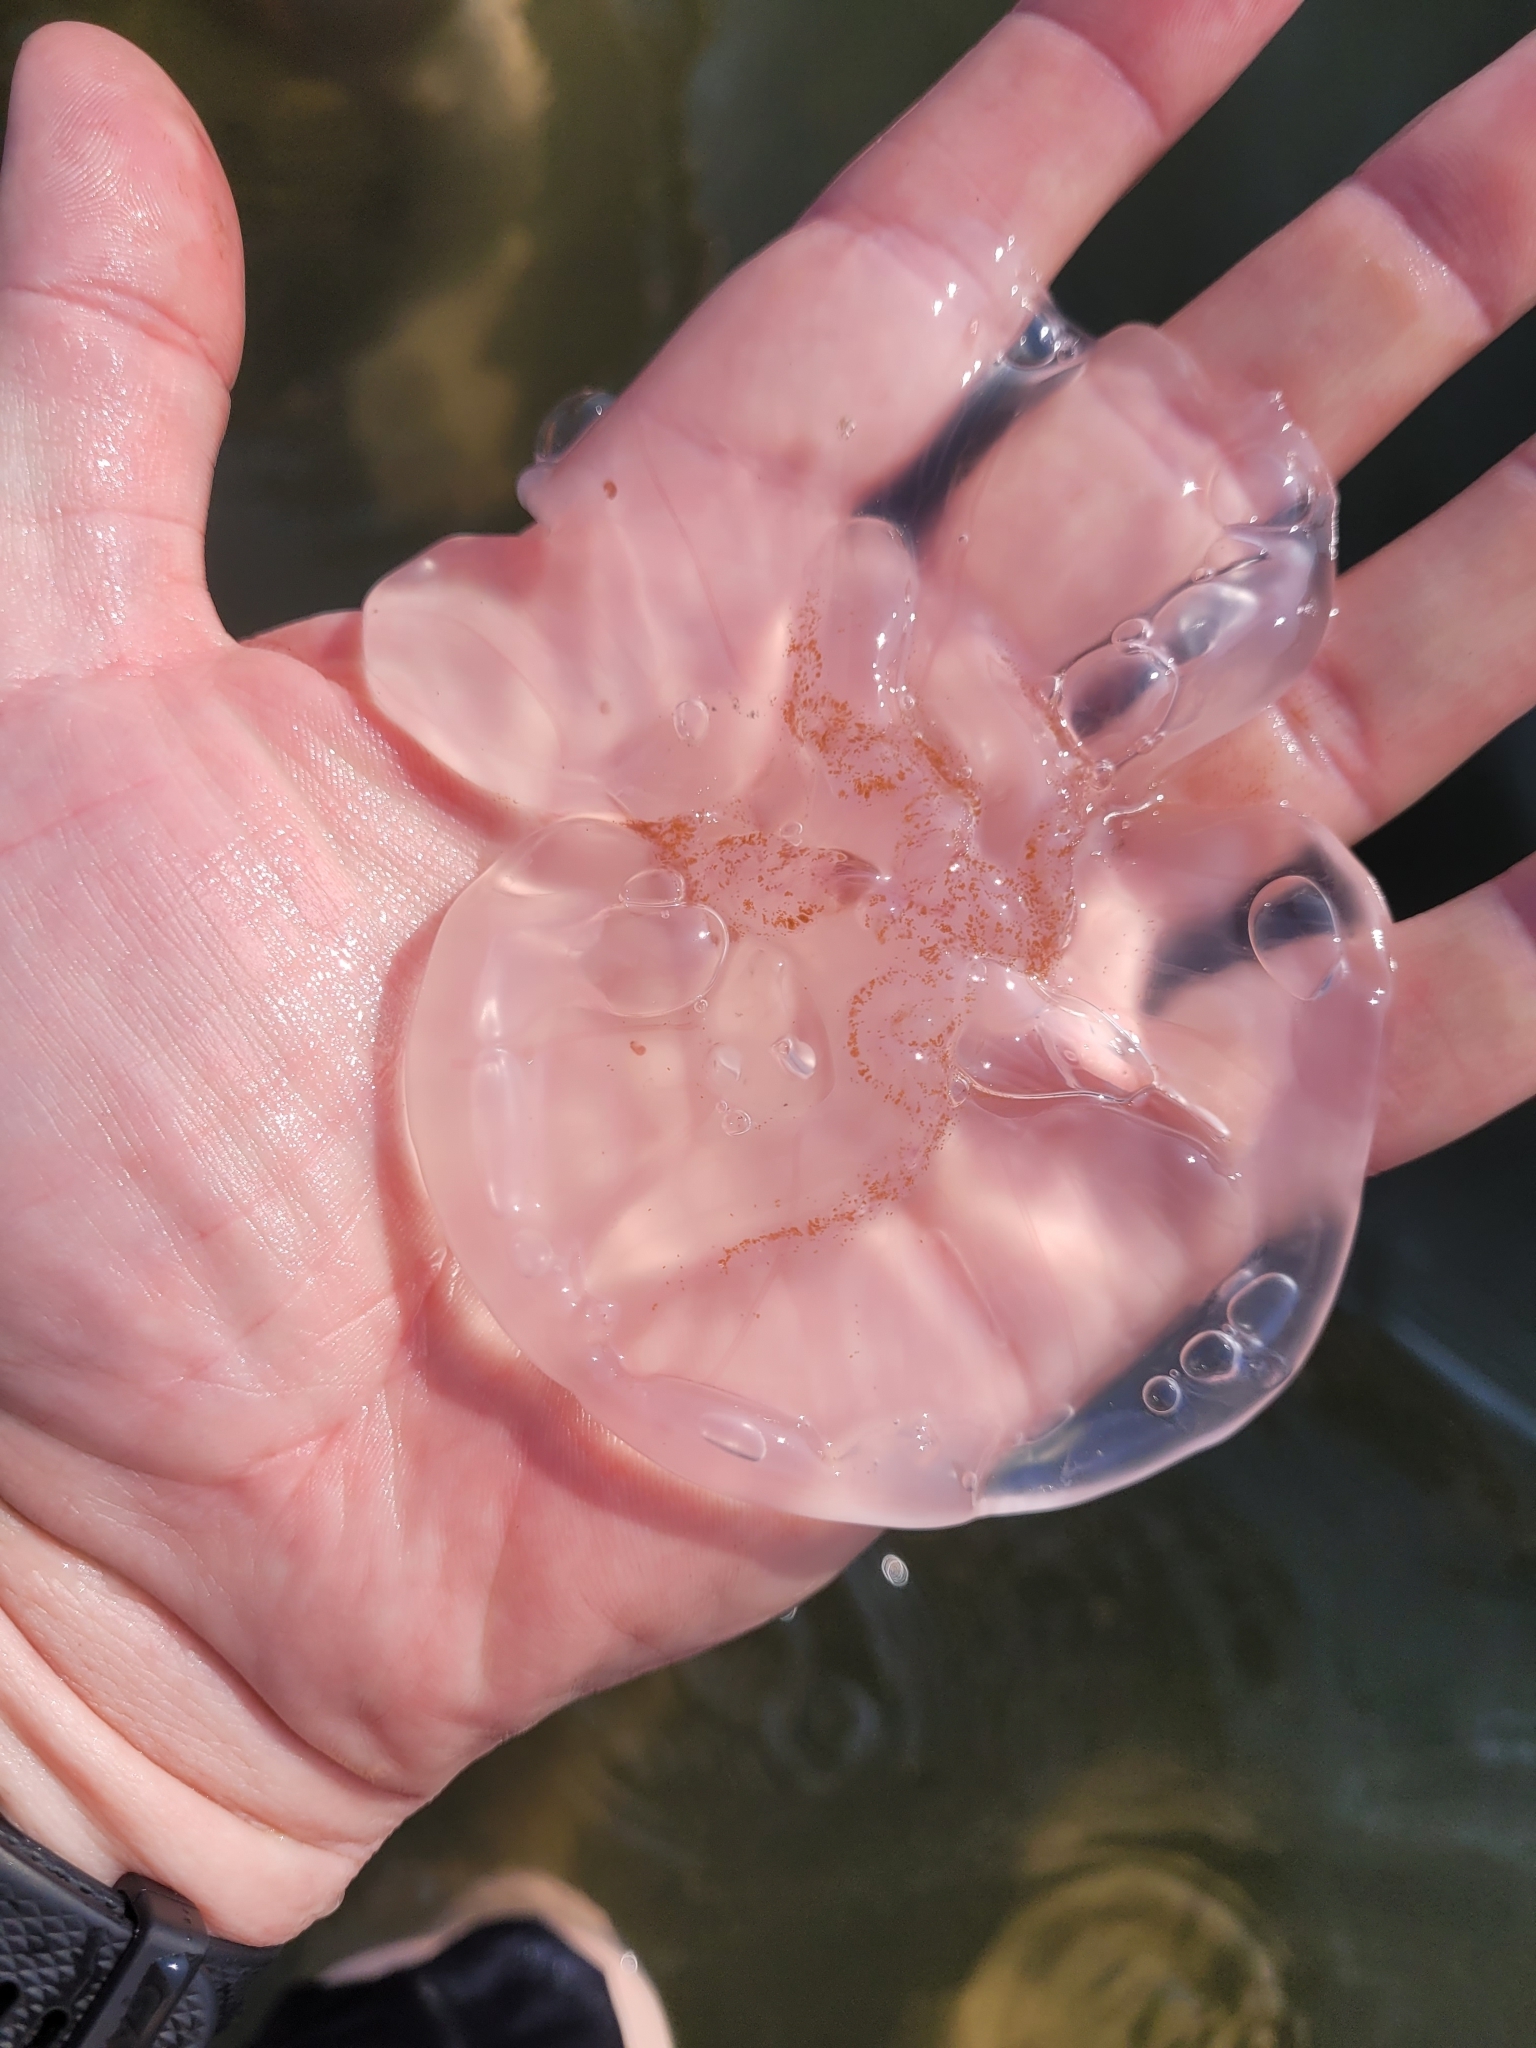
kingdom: Animalia
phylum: Cnidaria
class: Scyphozoa
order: Semaeostomeae
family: Ulmaridae
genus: Aurelia
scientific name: Aurelia aurita
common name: Moon jellyfish
